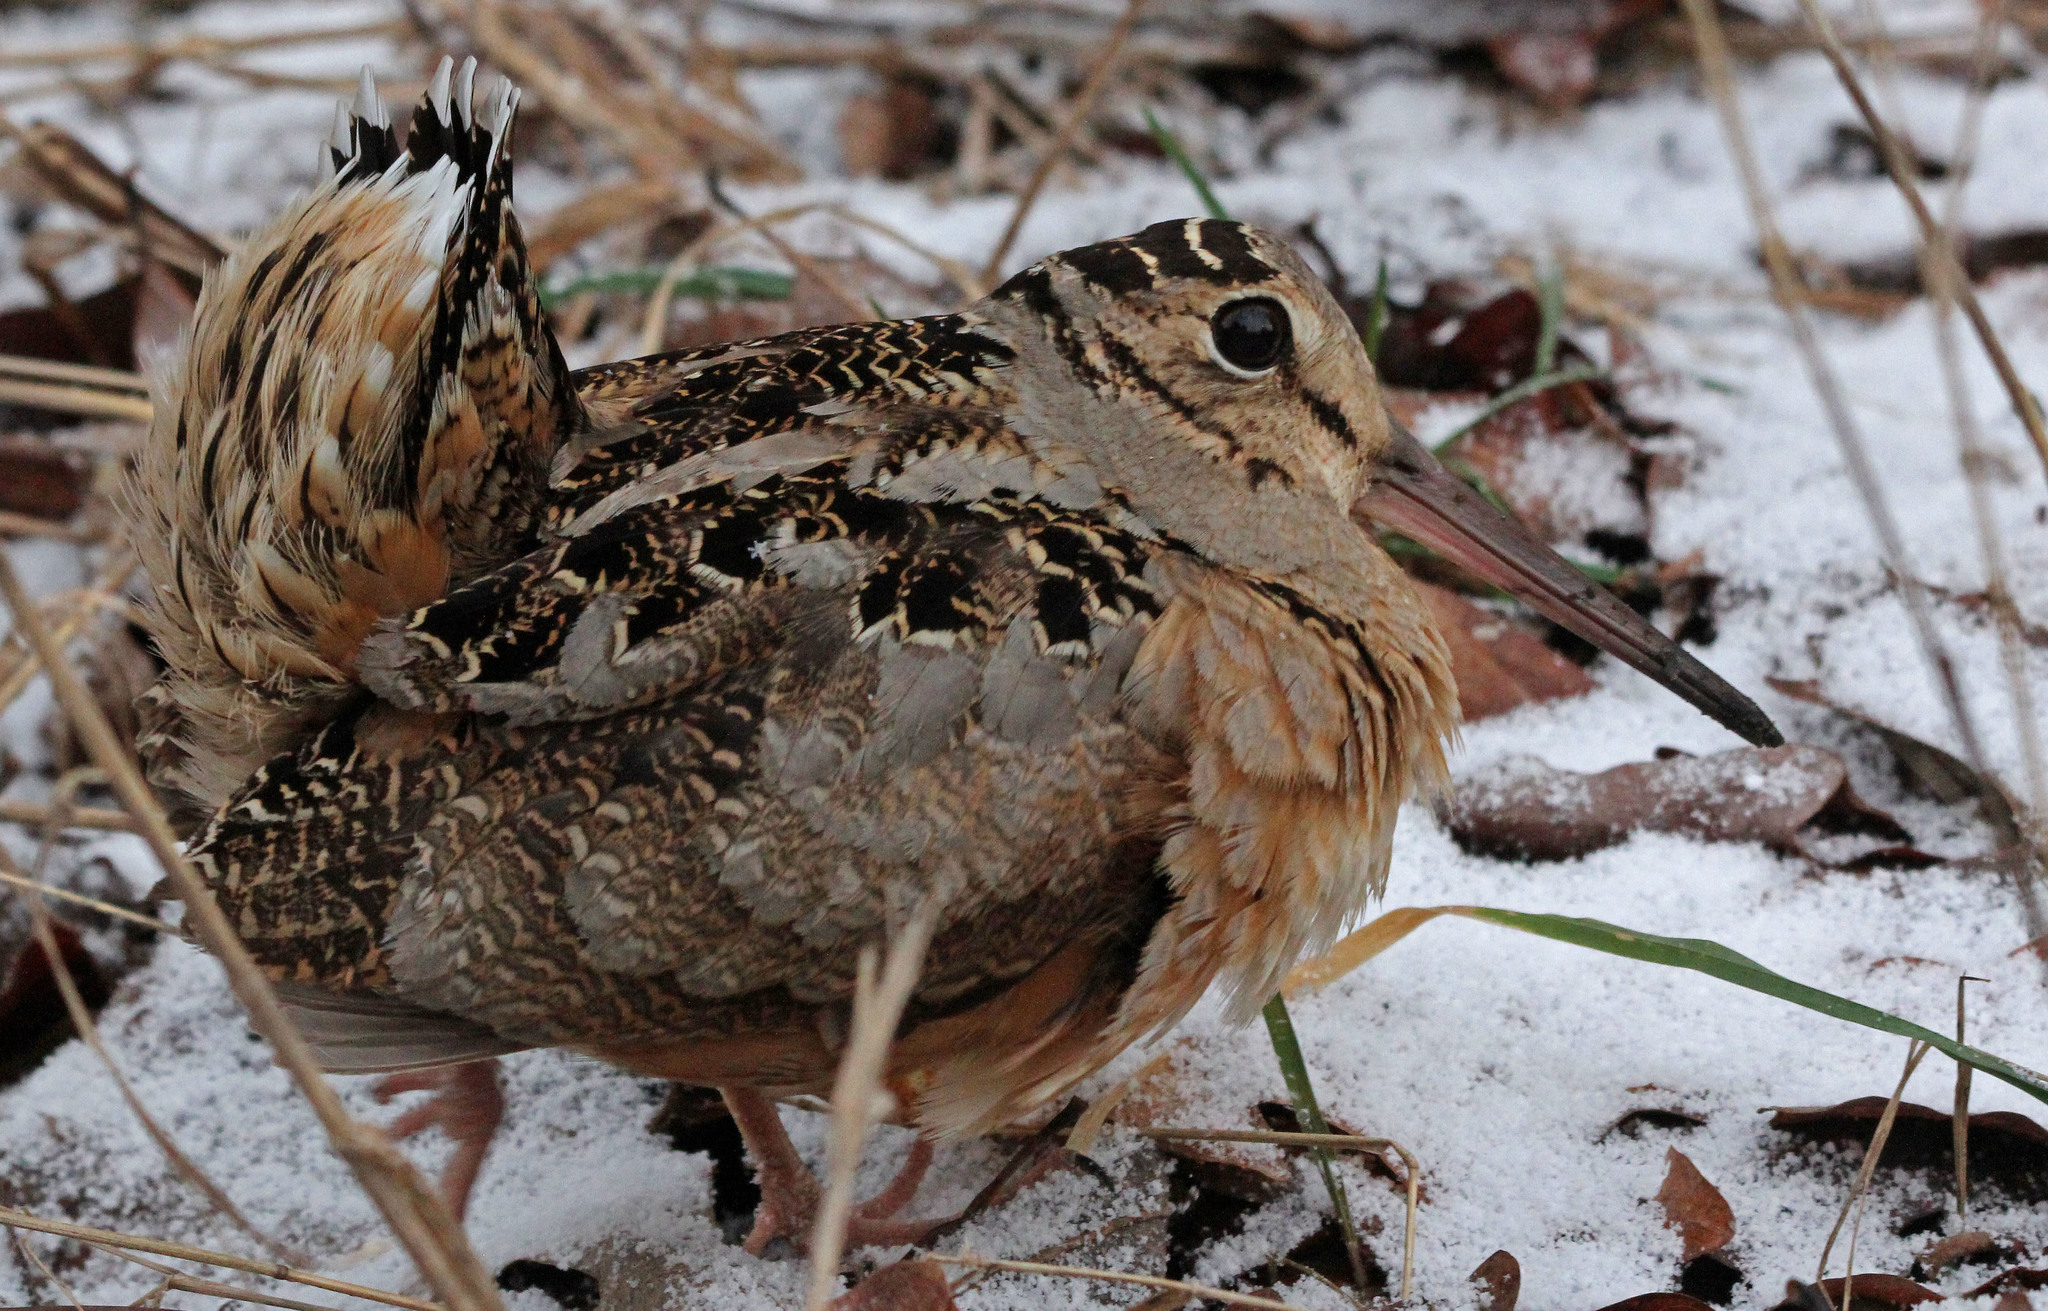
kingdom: Animalia
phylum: Chordata
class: Aves
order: Charadriiformes
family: Scolopacidae
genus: Scolopax
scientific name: Scolopax minor
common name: American woodcock
